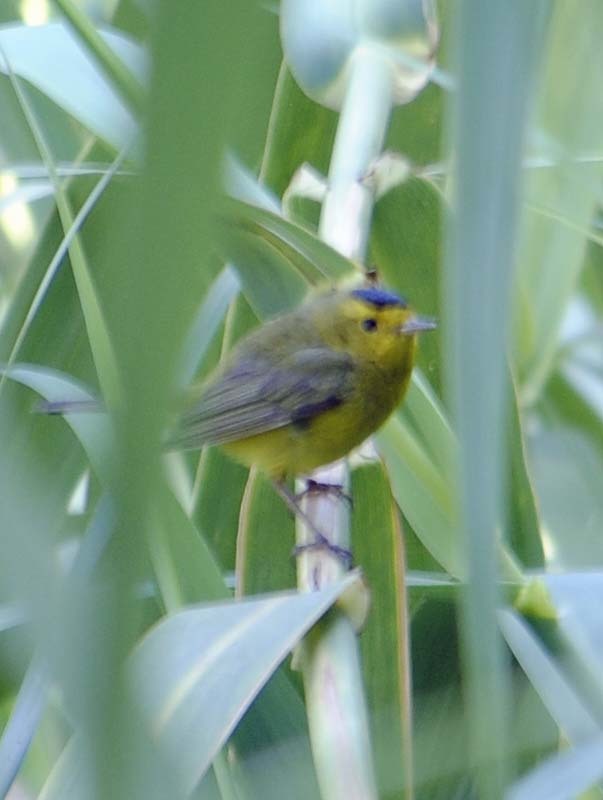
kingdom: Animalia
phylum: Chordata
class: Aves
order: Passeriformes
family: Parulidae
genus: Cardellina
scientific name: Cardellina pusilla
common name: Wilson's warbler
